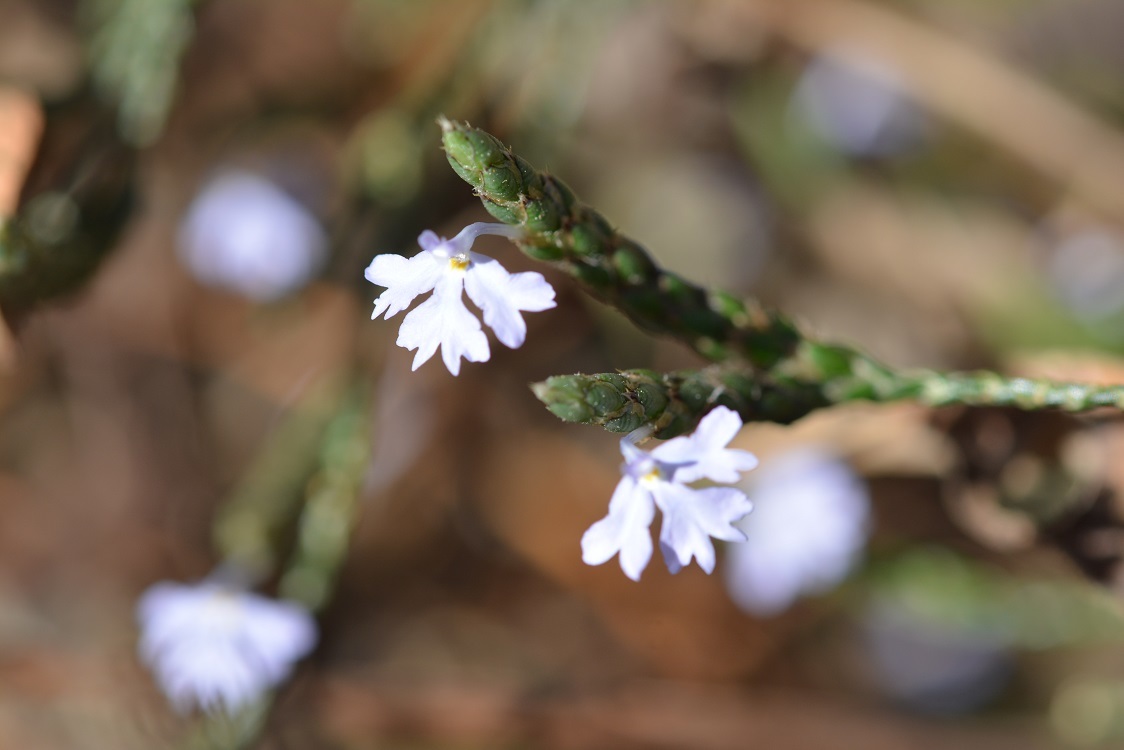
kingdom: Plantae
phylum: Tracheophyta
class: Magnoliopsida
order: Lamiales
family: Acanthaceae
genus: Elytraria
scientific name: Elytraria imbricata
